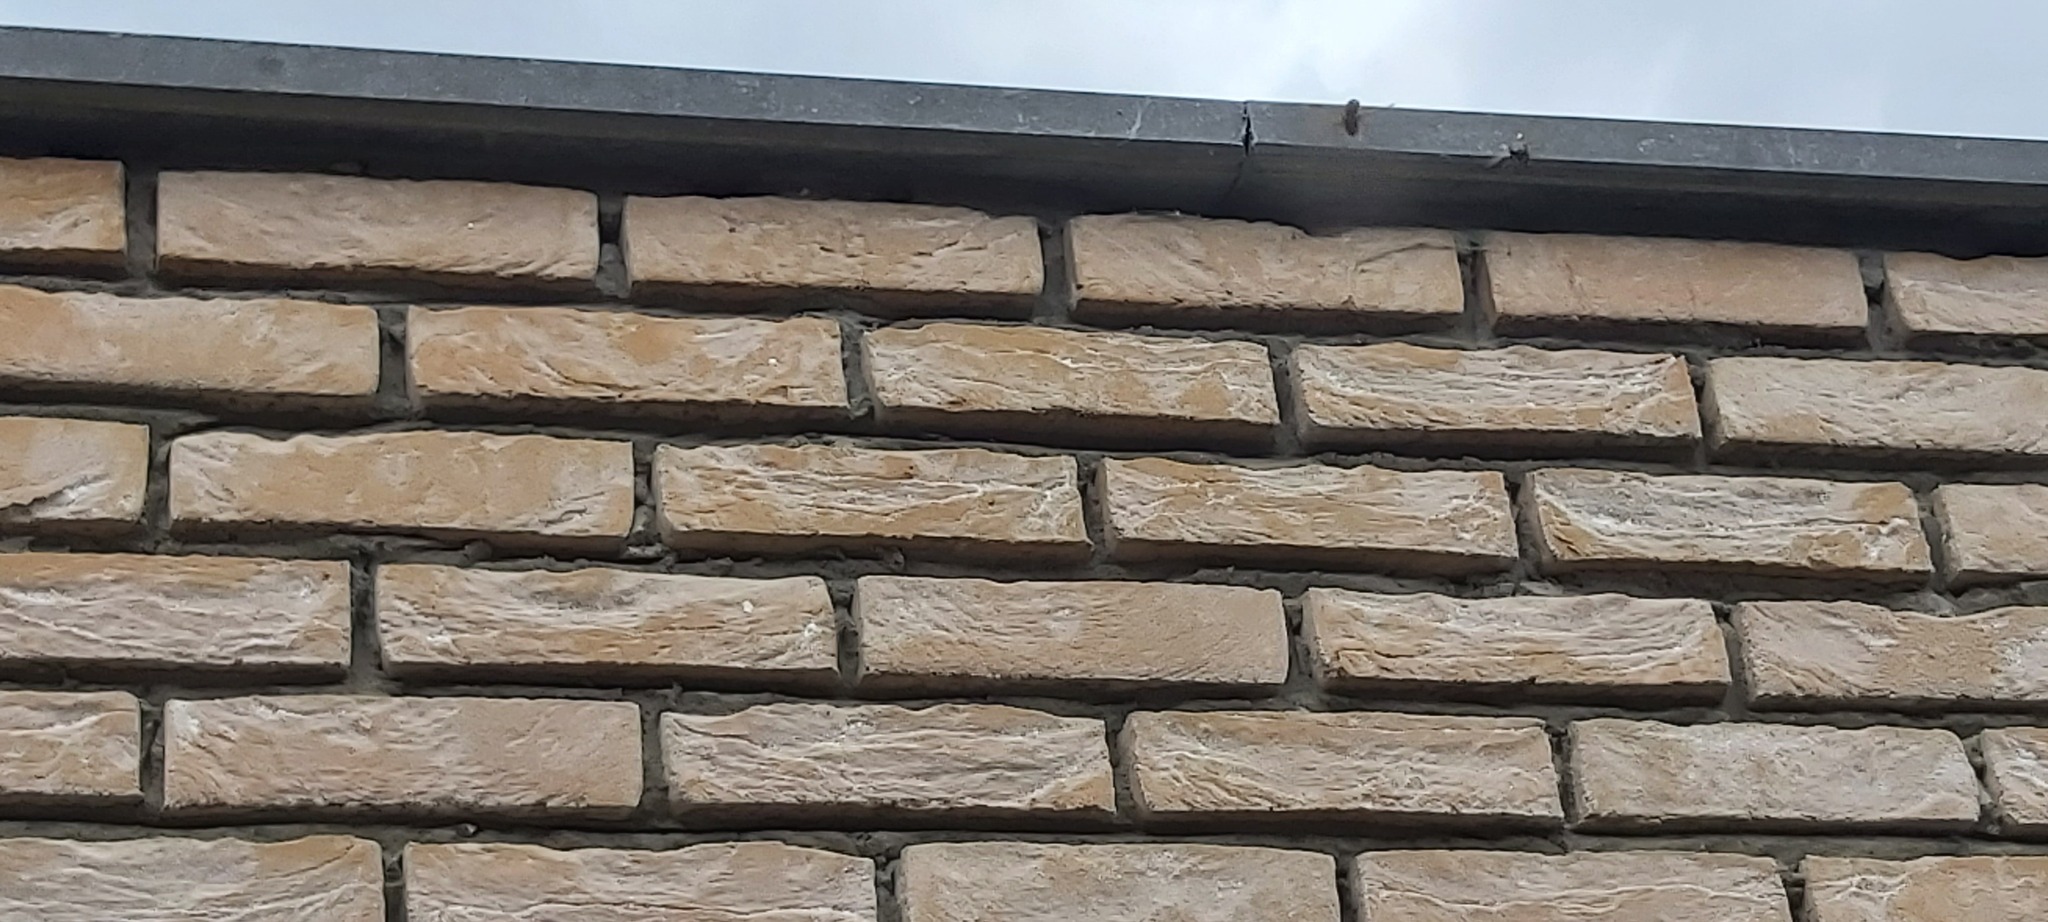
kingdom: Animalia
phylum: Arthropoda
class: Insecta
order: Hymenoptera
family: Vespidae
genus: Vespa
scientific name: Vespa crabro
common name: Hornet
